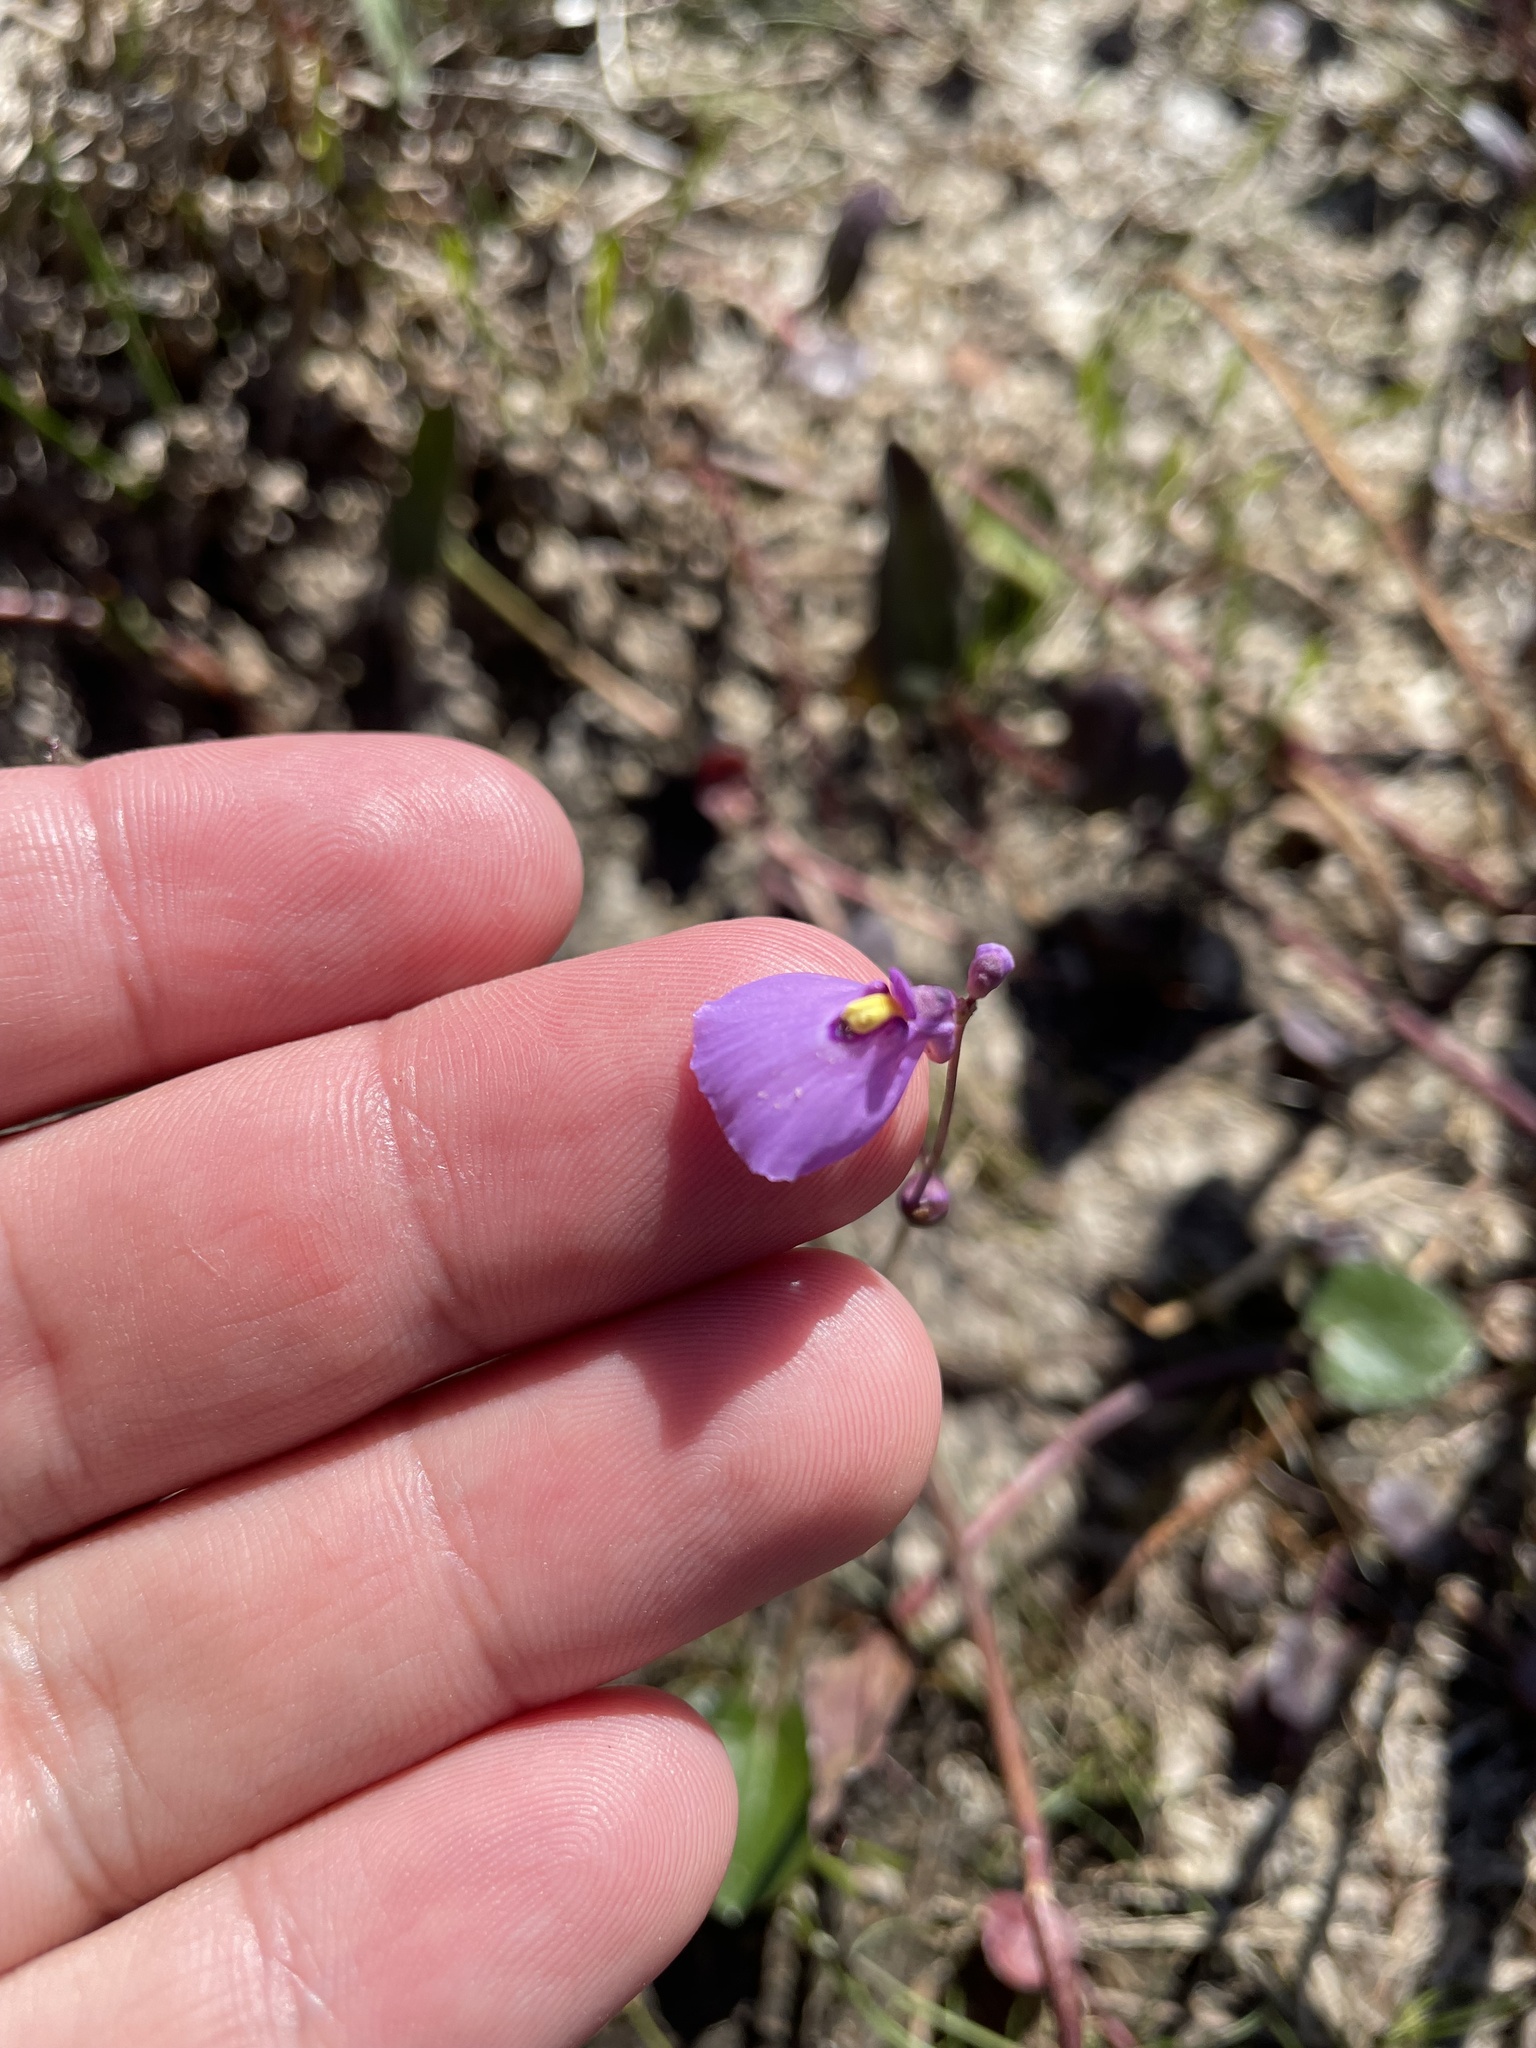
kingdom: Plantae
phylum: Tracheophyta
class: Magnoliopsida
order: Lamiales
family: Lentibulariaceae
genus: Utricularia
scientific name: Utricularia dichotoma
